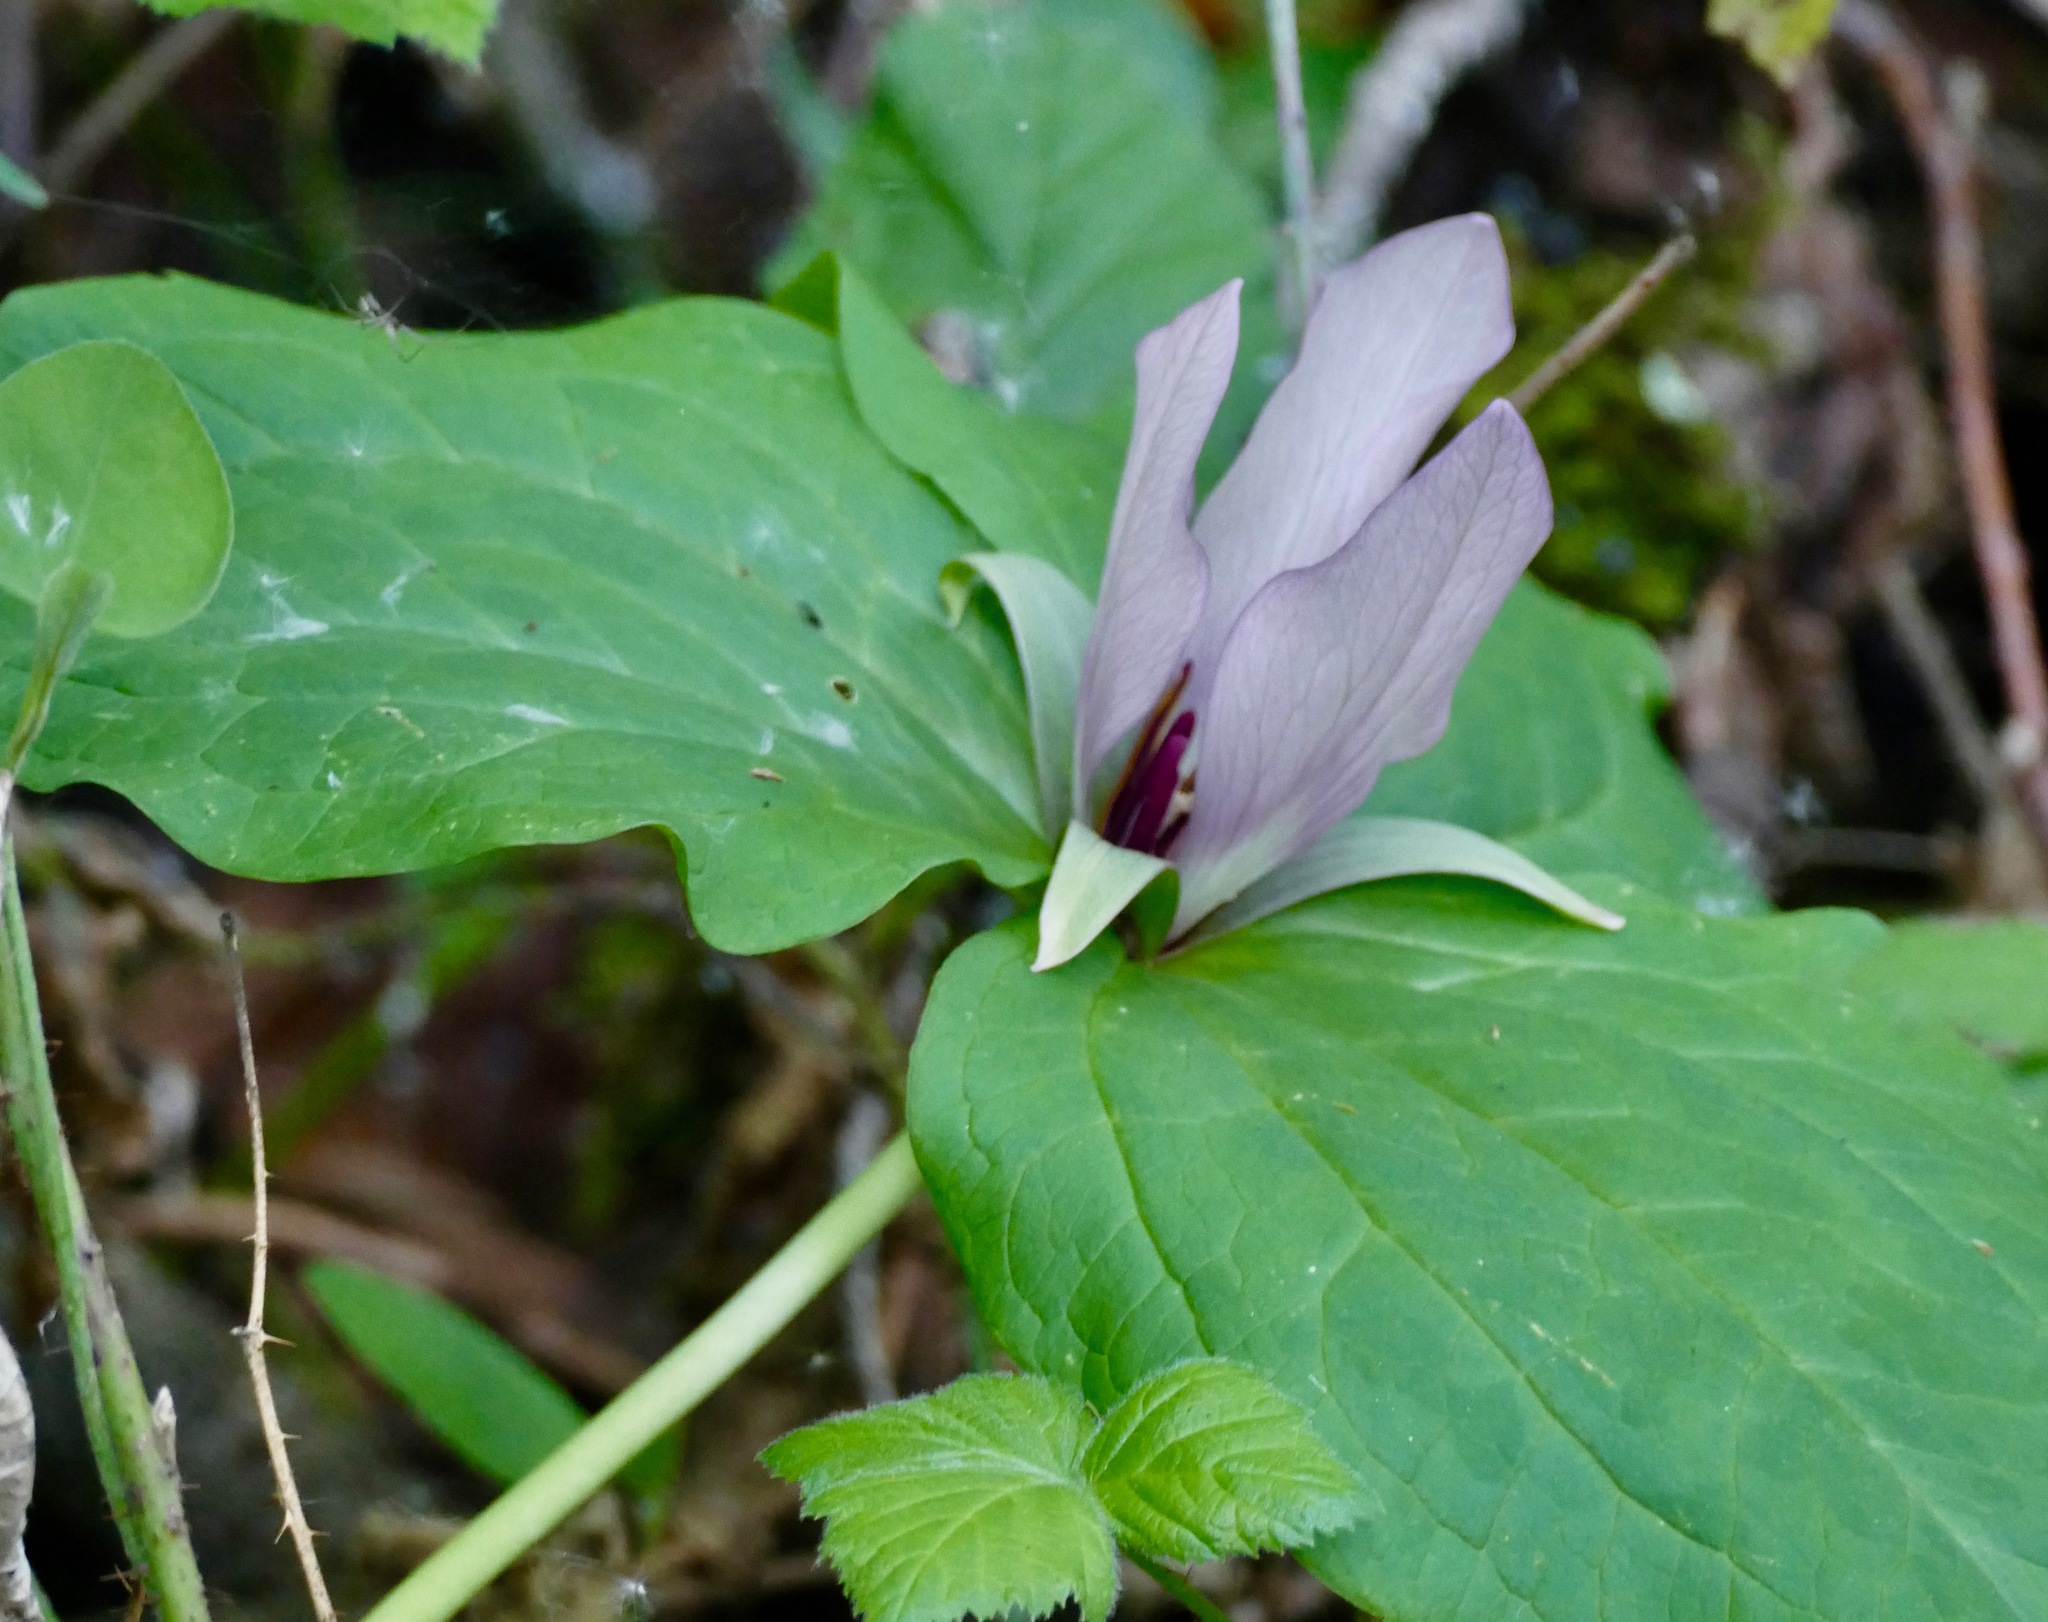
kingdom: Plantae
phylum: Tracheophyta
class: Liliopsida
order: Liliales
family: Melanthiaceae
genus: Trillium
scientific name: Trillium chloropetalum
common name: Giant trillium
